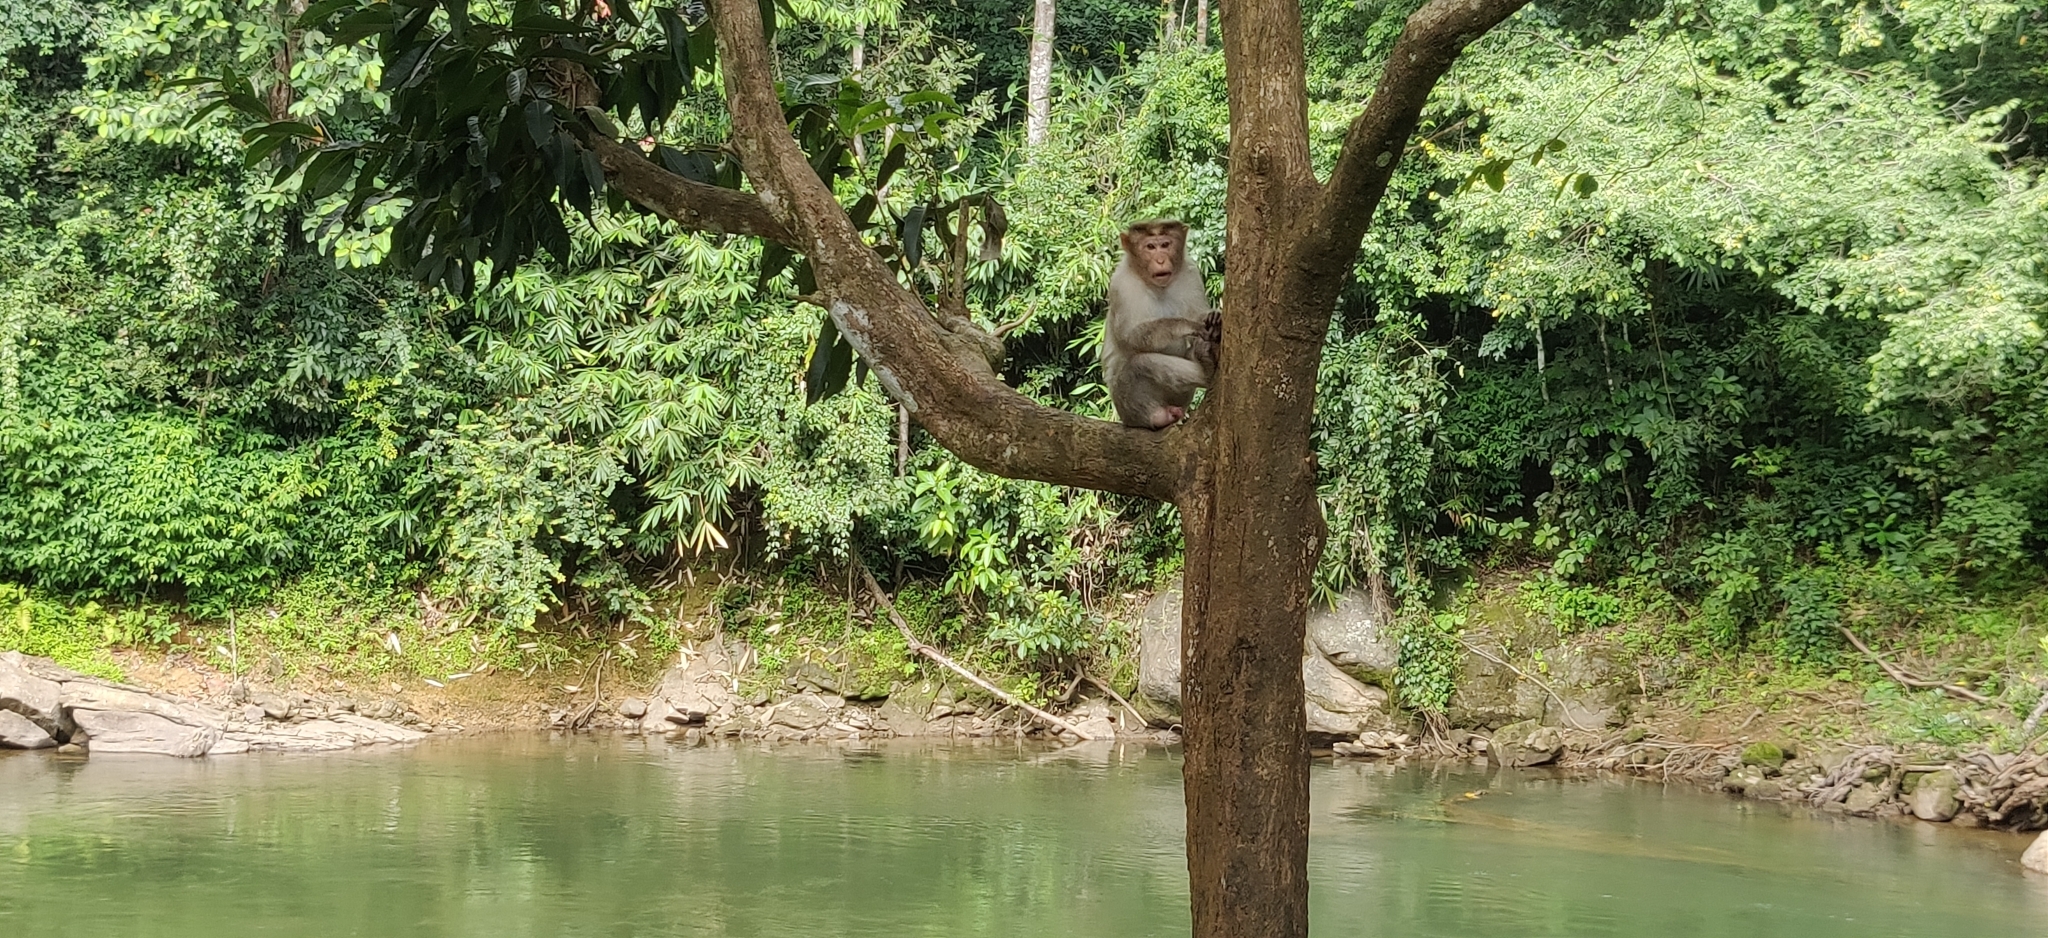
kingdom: Animalia
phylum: Chordata
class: Mammalia
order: Primates
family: Cercopithecidae
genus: Macaca
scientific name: Macaca radiata
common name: Bonnet macaque
